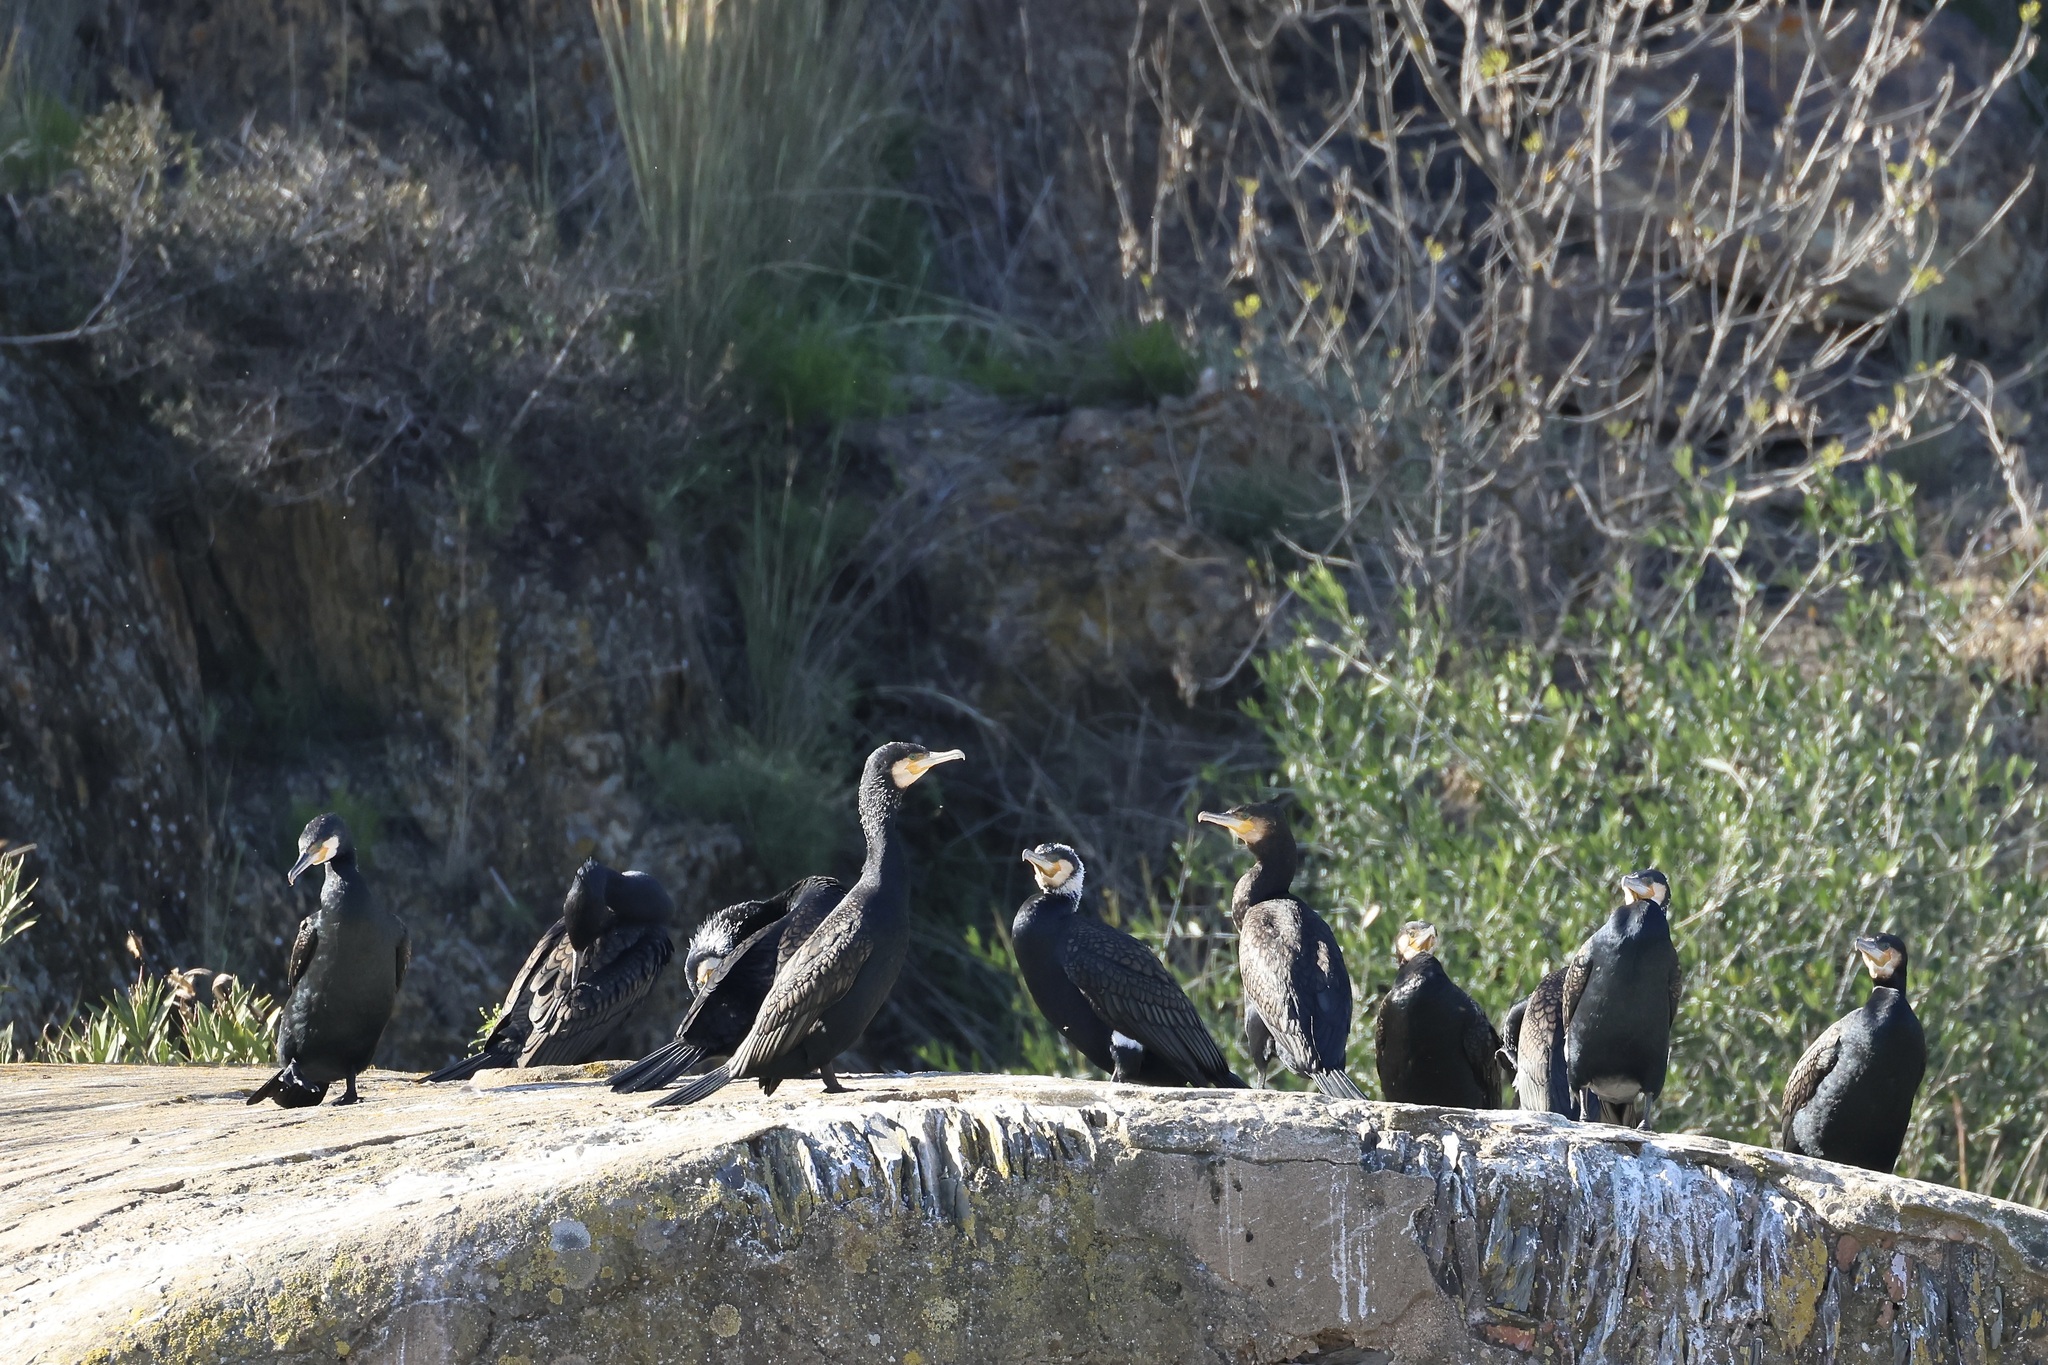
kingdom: Animalia
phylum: Chordata
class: Aves
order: Suliformes
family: Phalacrocoracidae
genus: Phalacrocorax
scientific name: Phalacrocorax carbo
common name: Great cormorant
